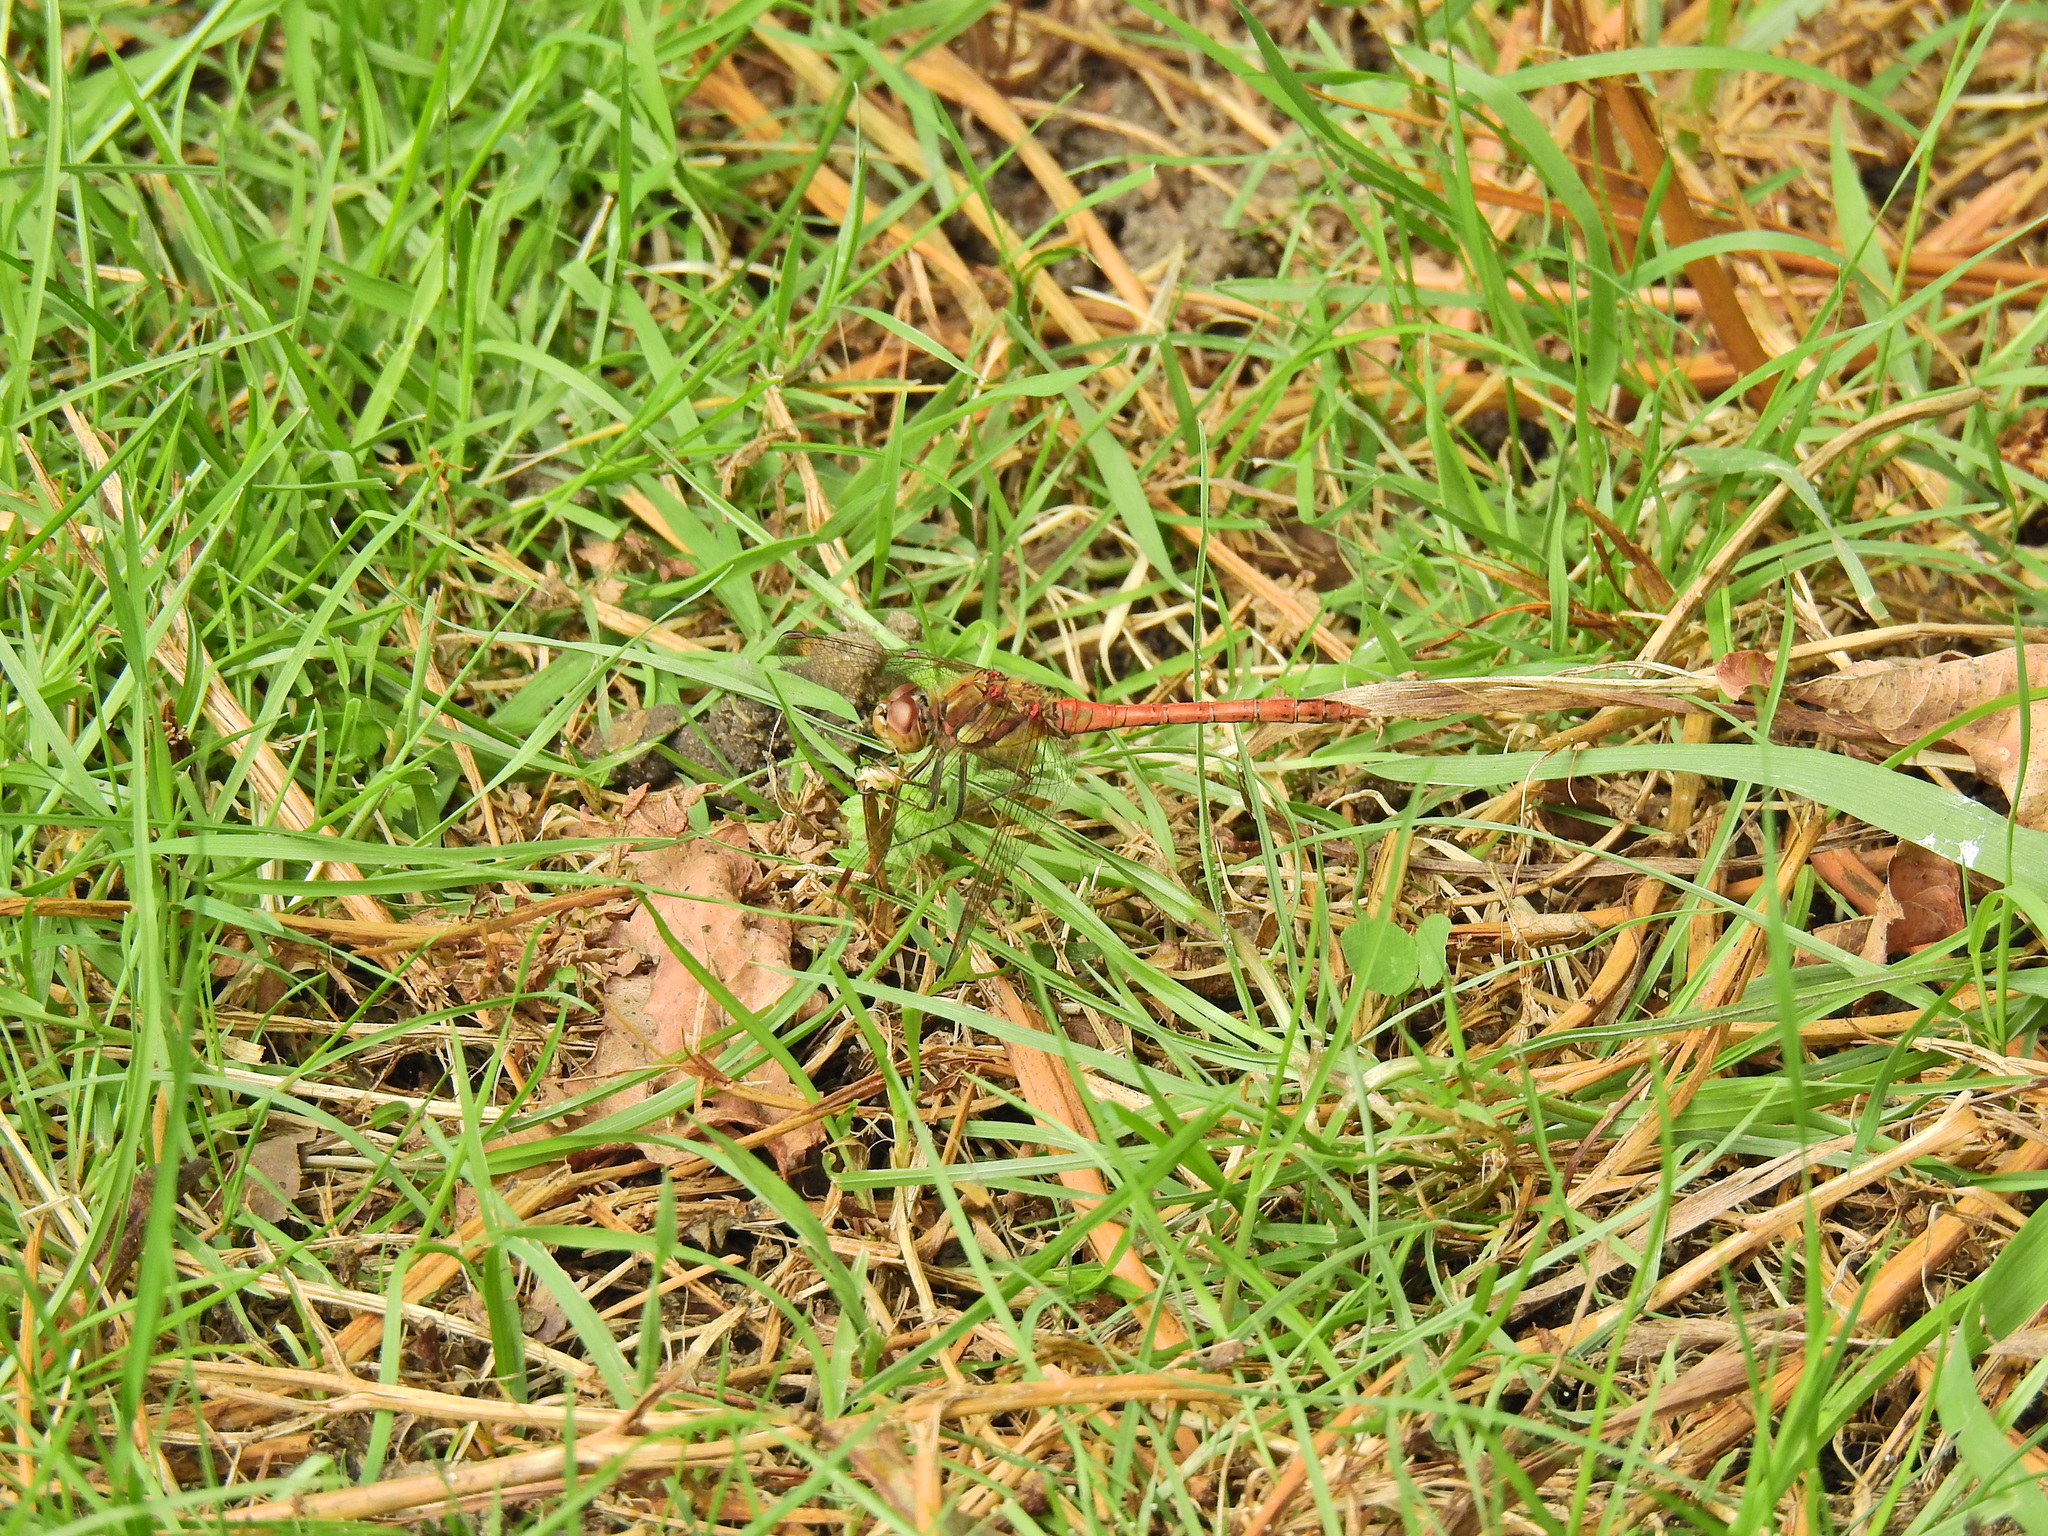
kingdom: Animalia
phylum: Arthropoda
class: Insecta
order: Odonata
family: Libellulidae
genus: Sympetrum
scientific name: Sympetrum striolatum
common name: Common darter
